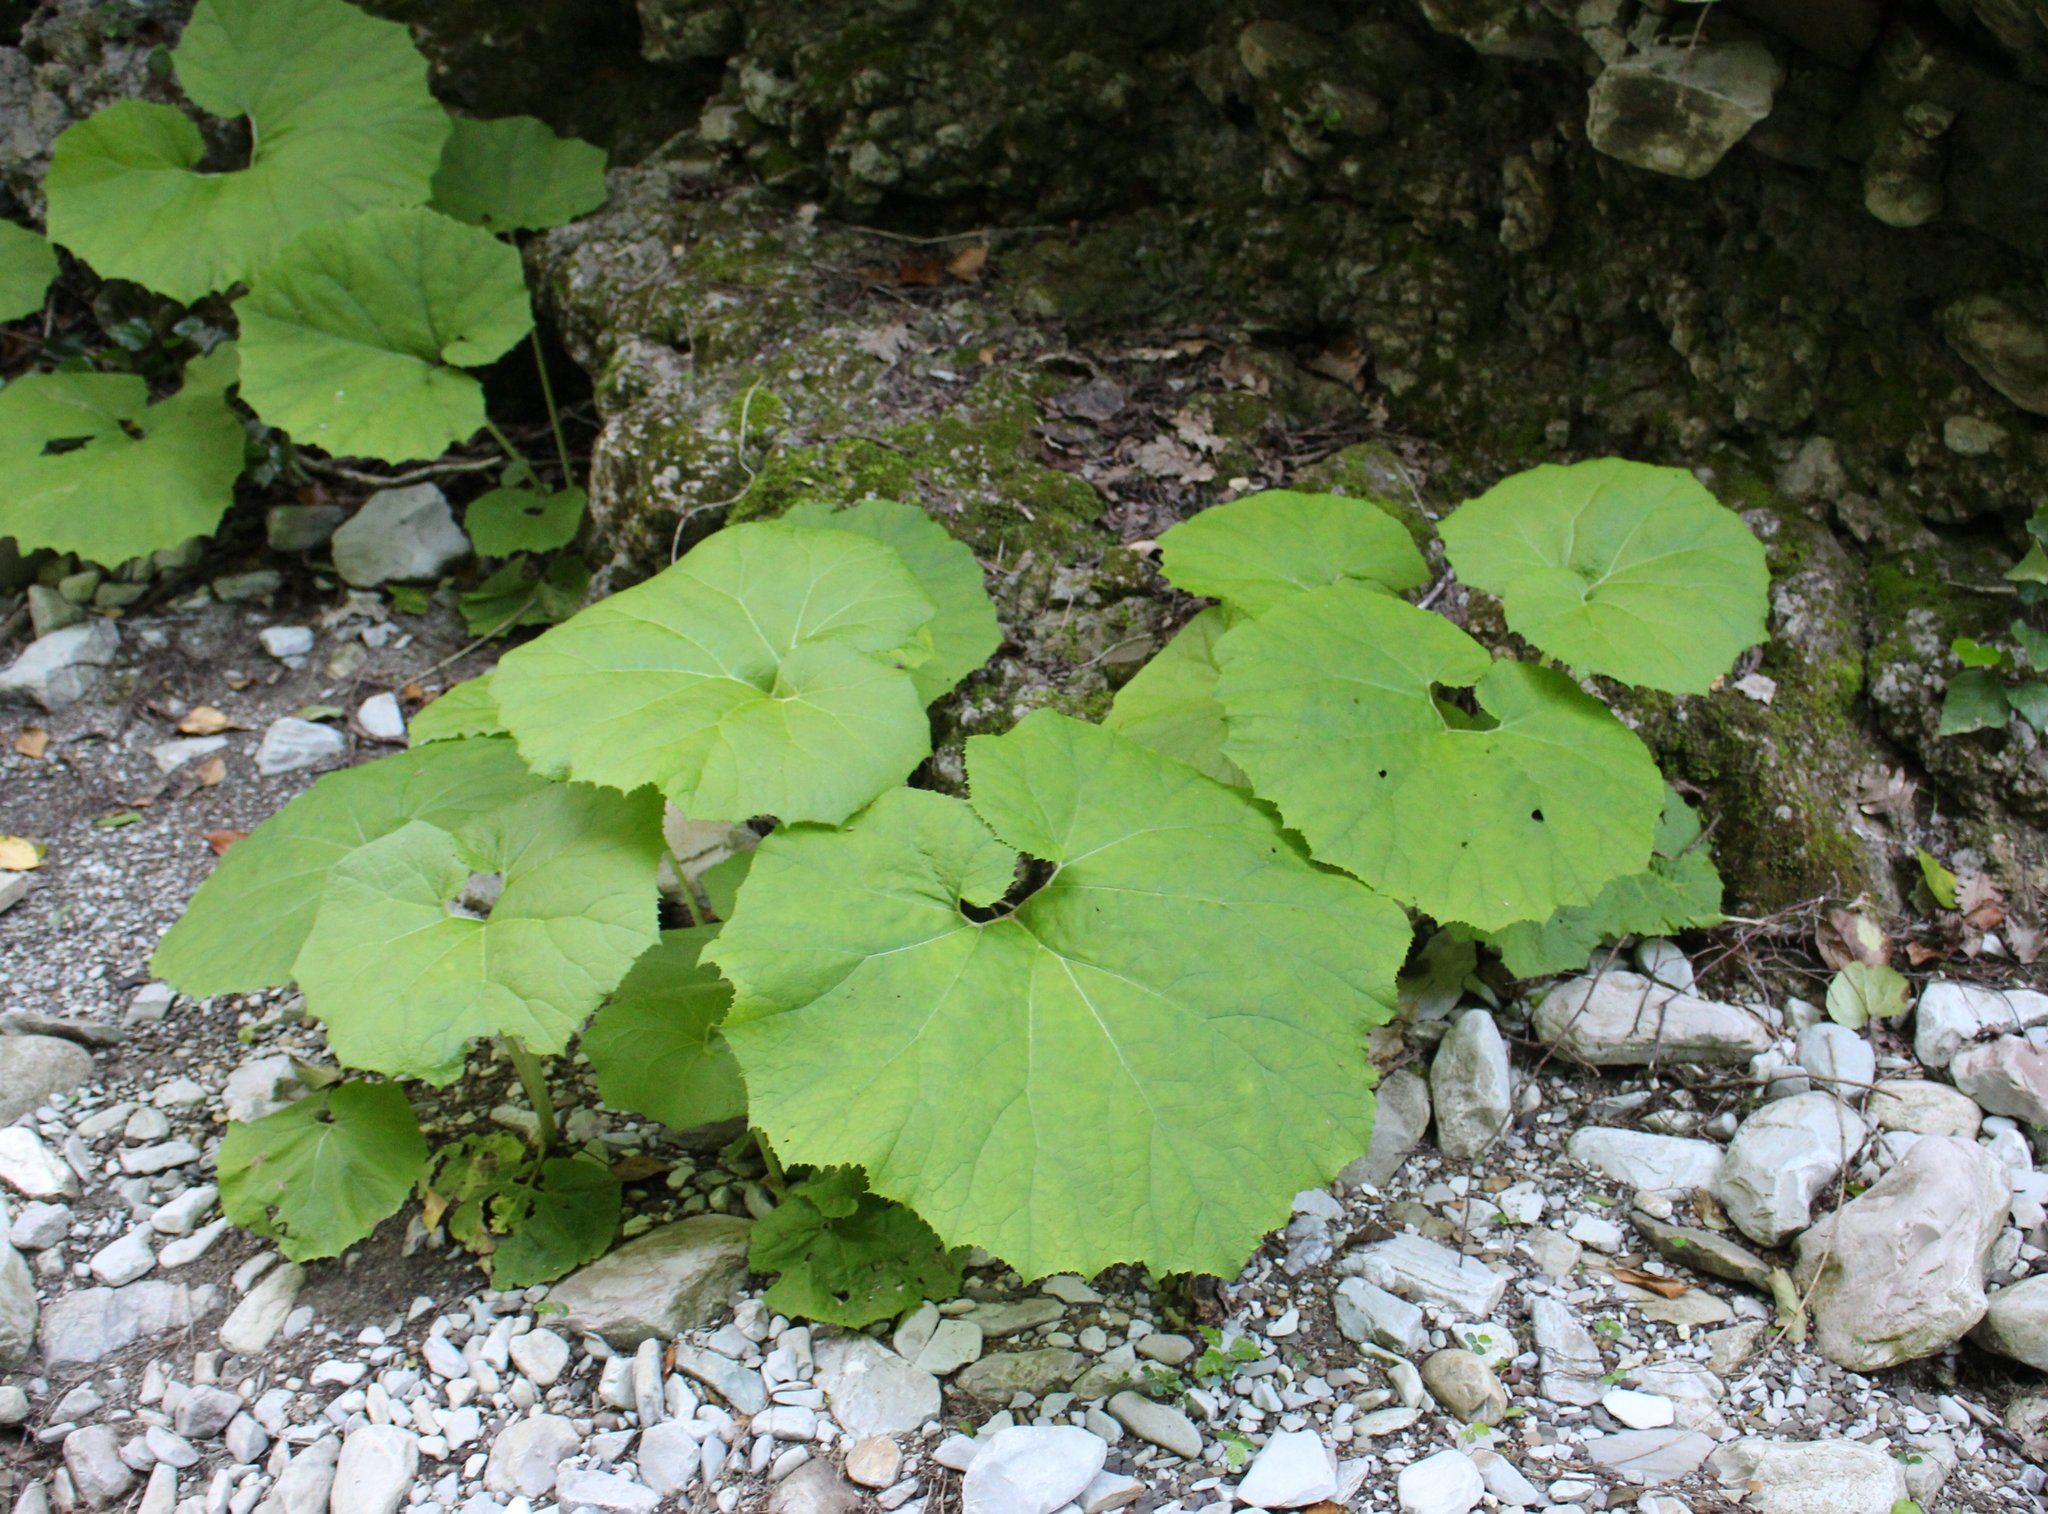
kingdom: Plantae
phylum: Tracheophyta
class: Magnoliopsida
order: Asterales
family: Asteraceae
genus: Petasites
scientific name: Petasites albus
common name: White butterbur
